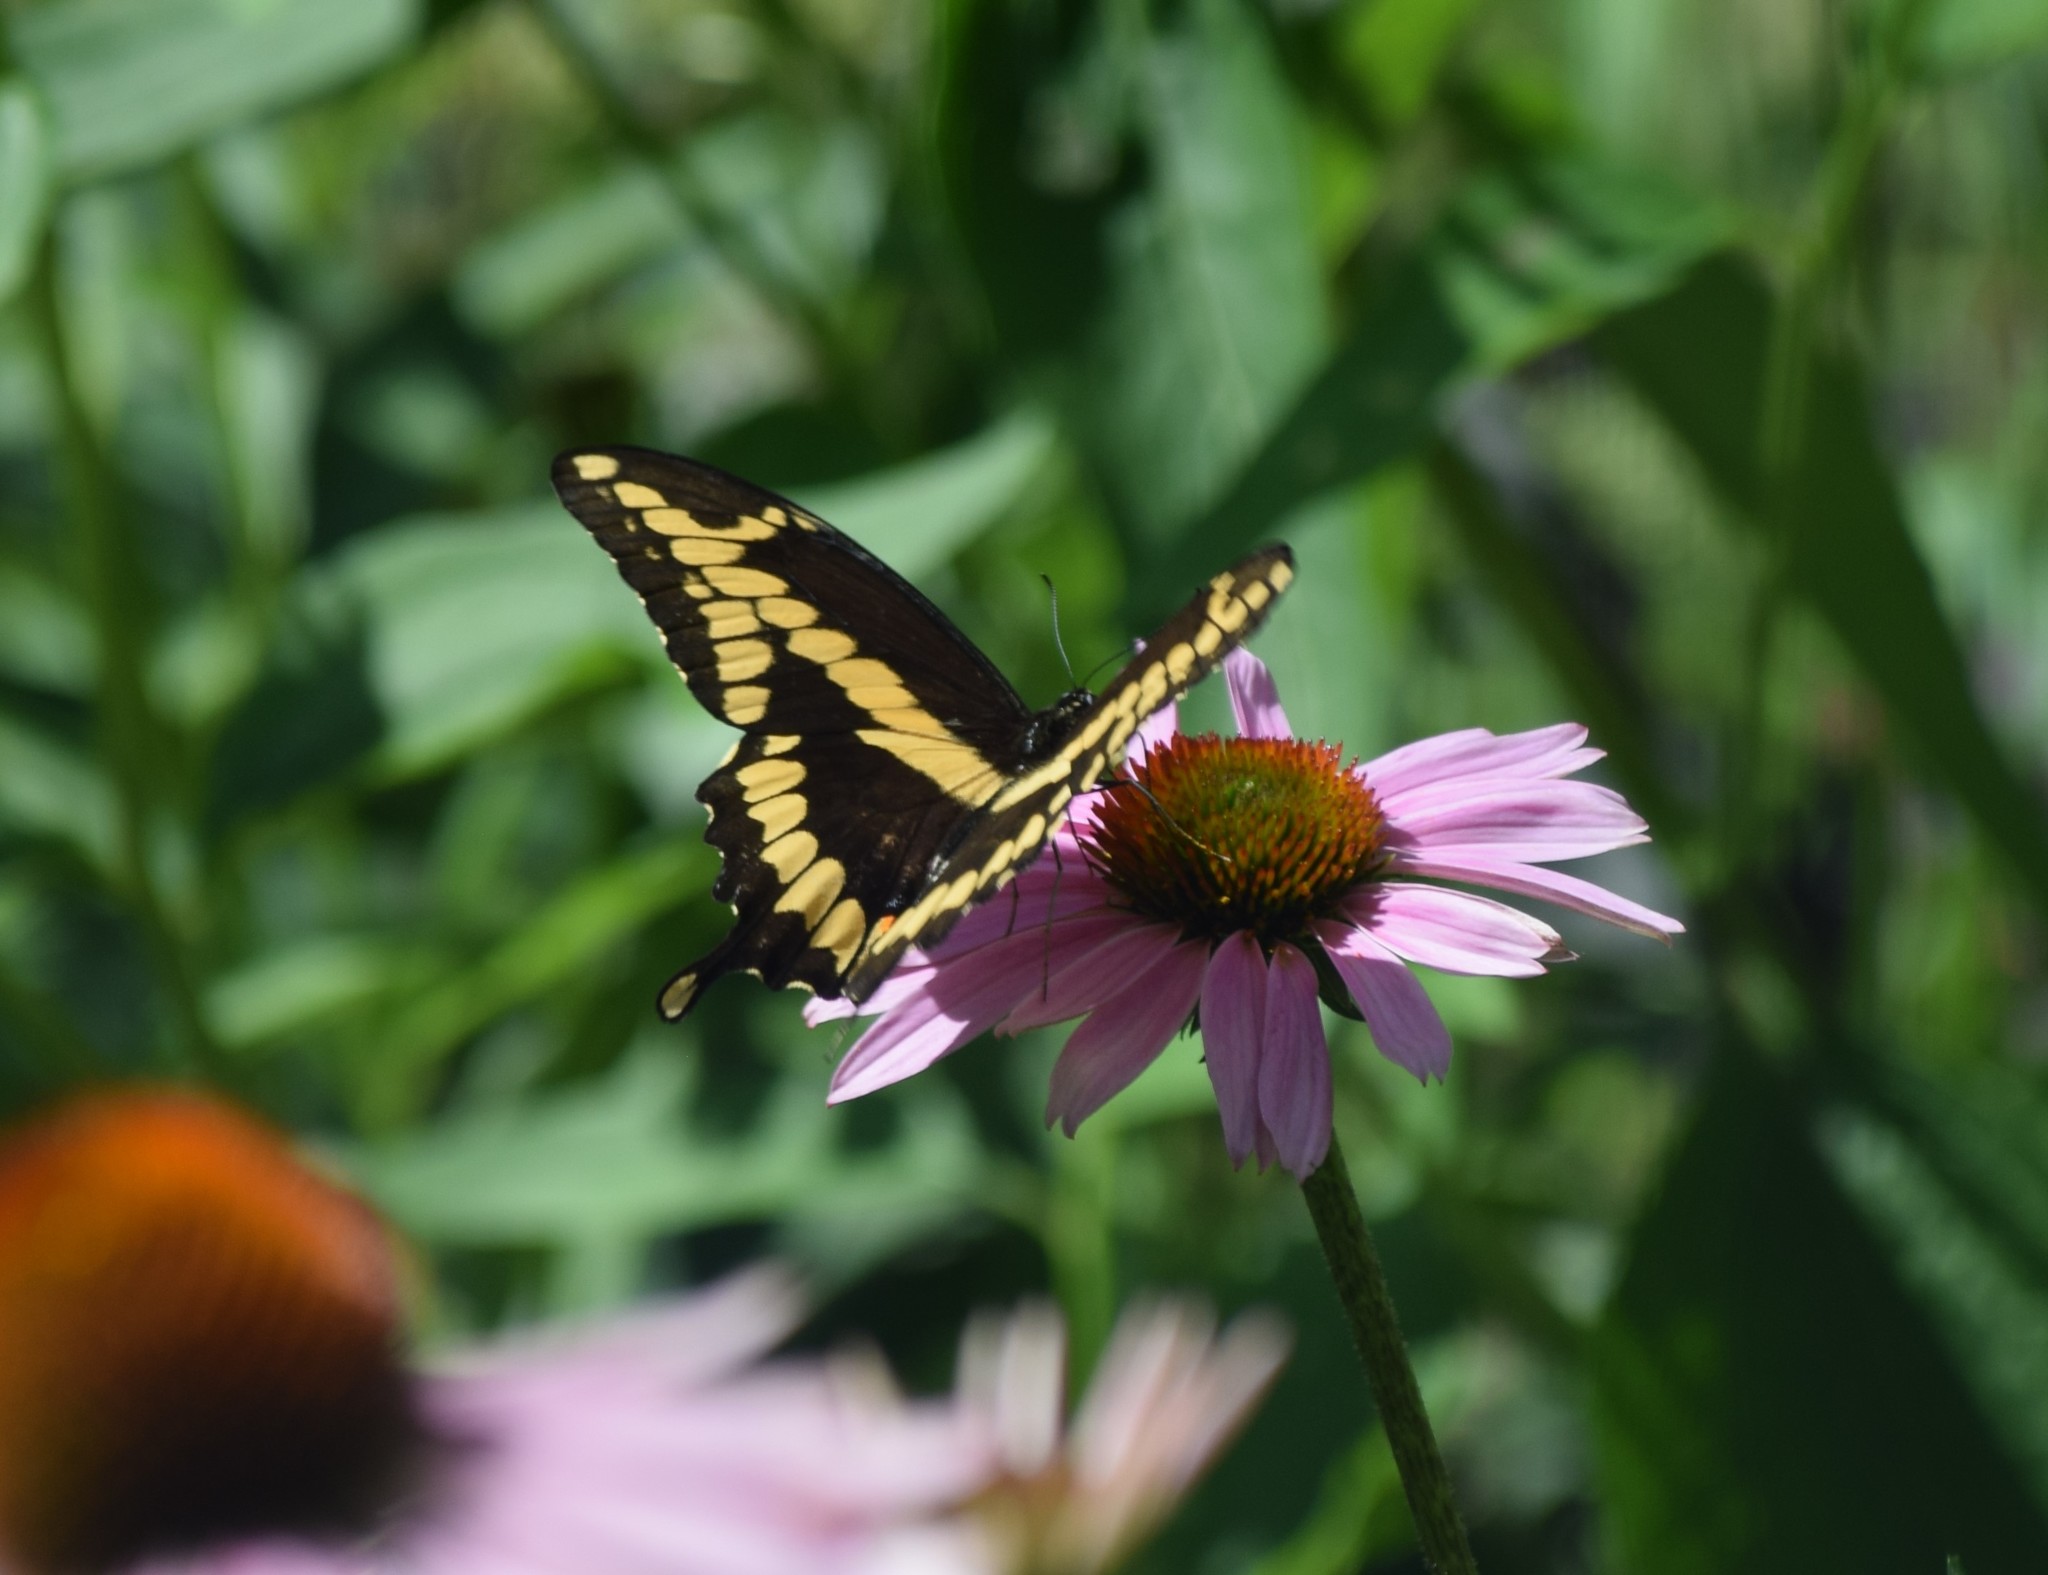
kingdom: Animalia
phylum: Arthropoda
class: Insecta
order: Lepidoptera
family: Papilionidae
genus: Papilio
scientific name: Papilio cresphontes
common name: Giant swallowtail
